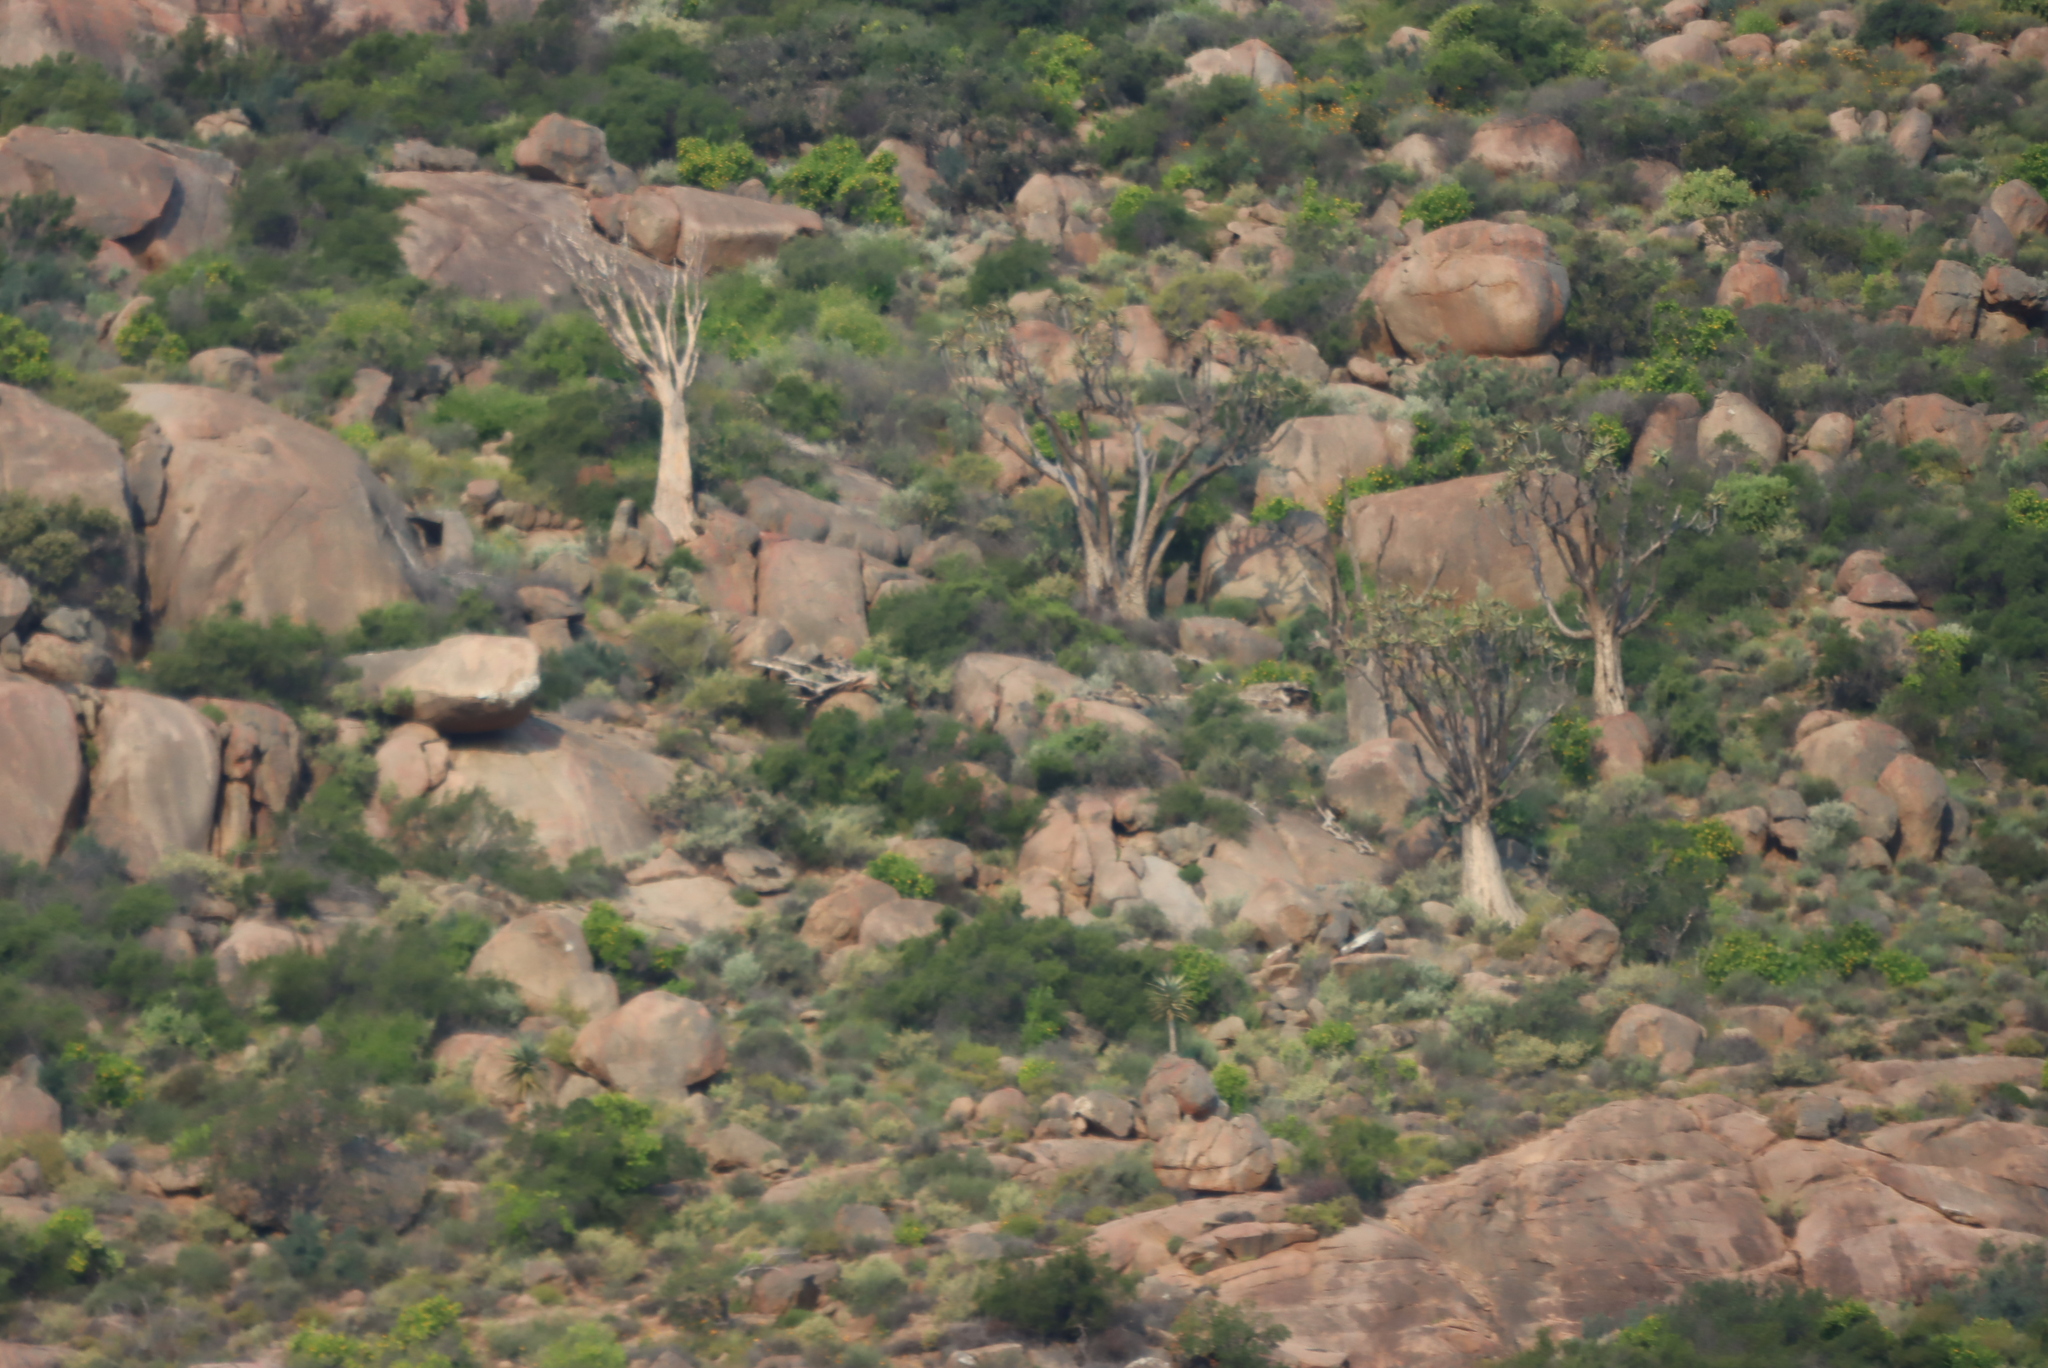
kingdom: Plantae
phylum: Tracheophyta
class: Liliopsida
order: Asparagales
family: Asphodelaceae
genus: Aloidendron
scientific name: Aloidendron dichotomum
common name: Quiver tree
